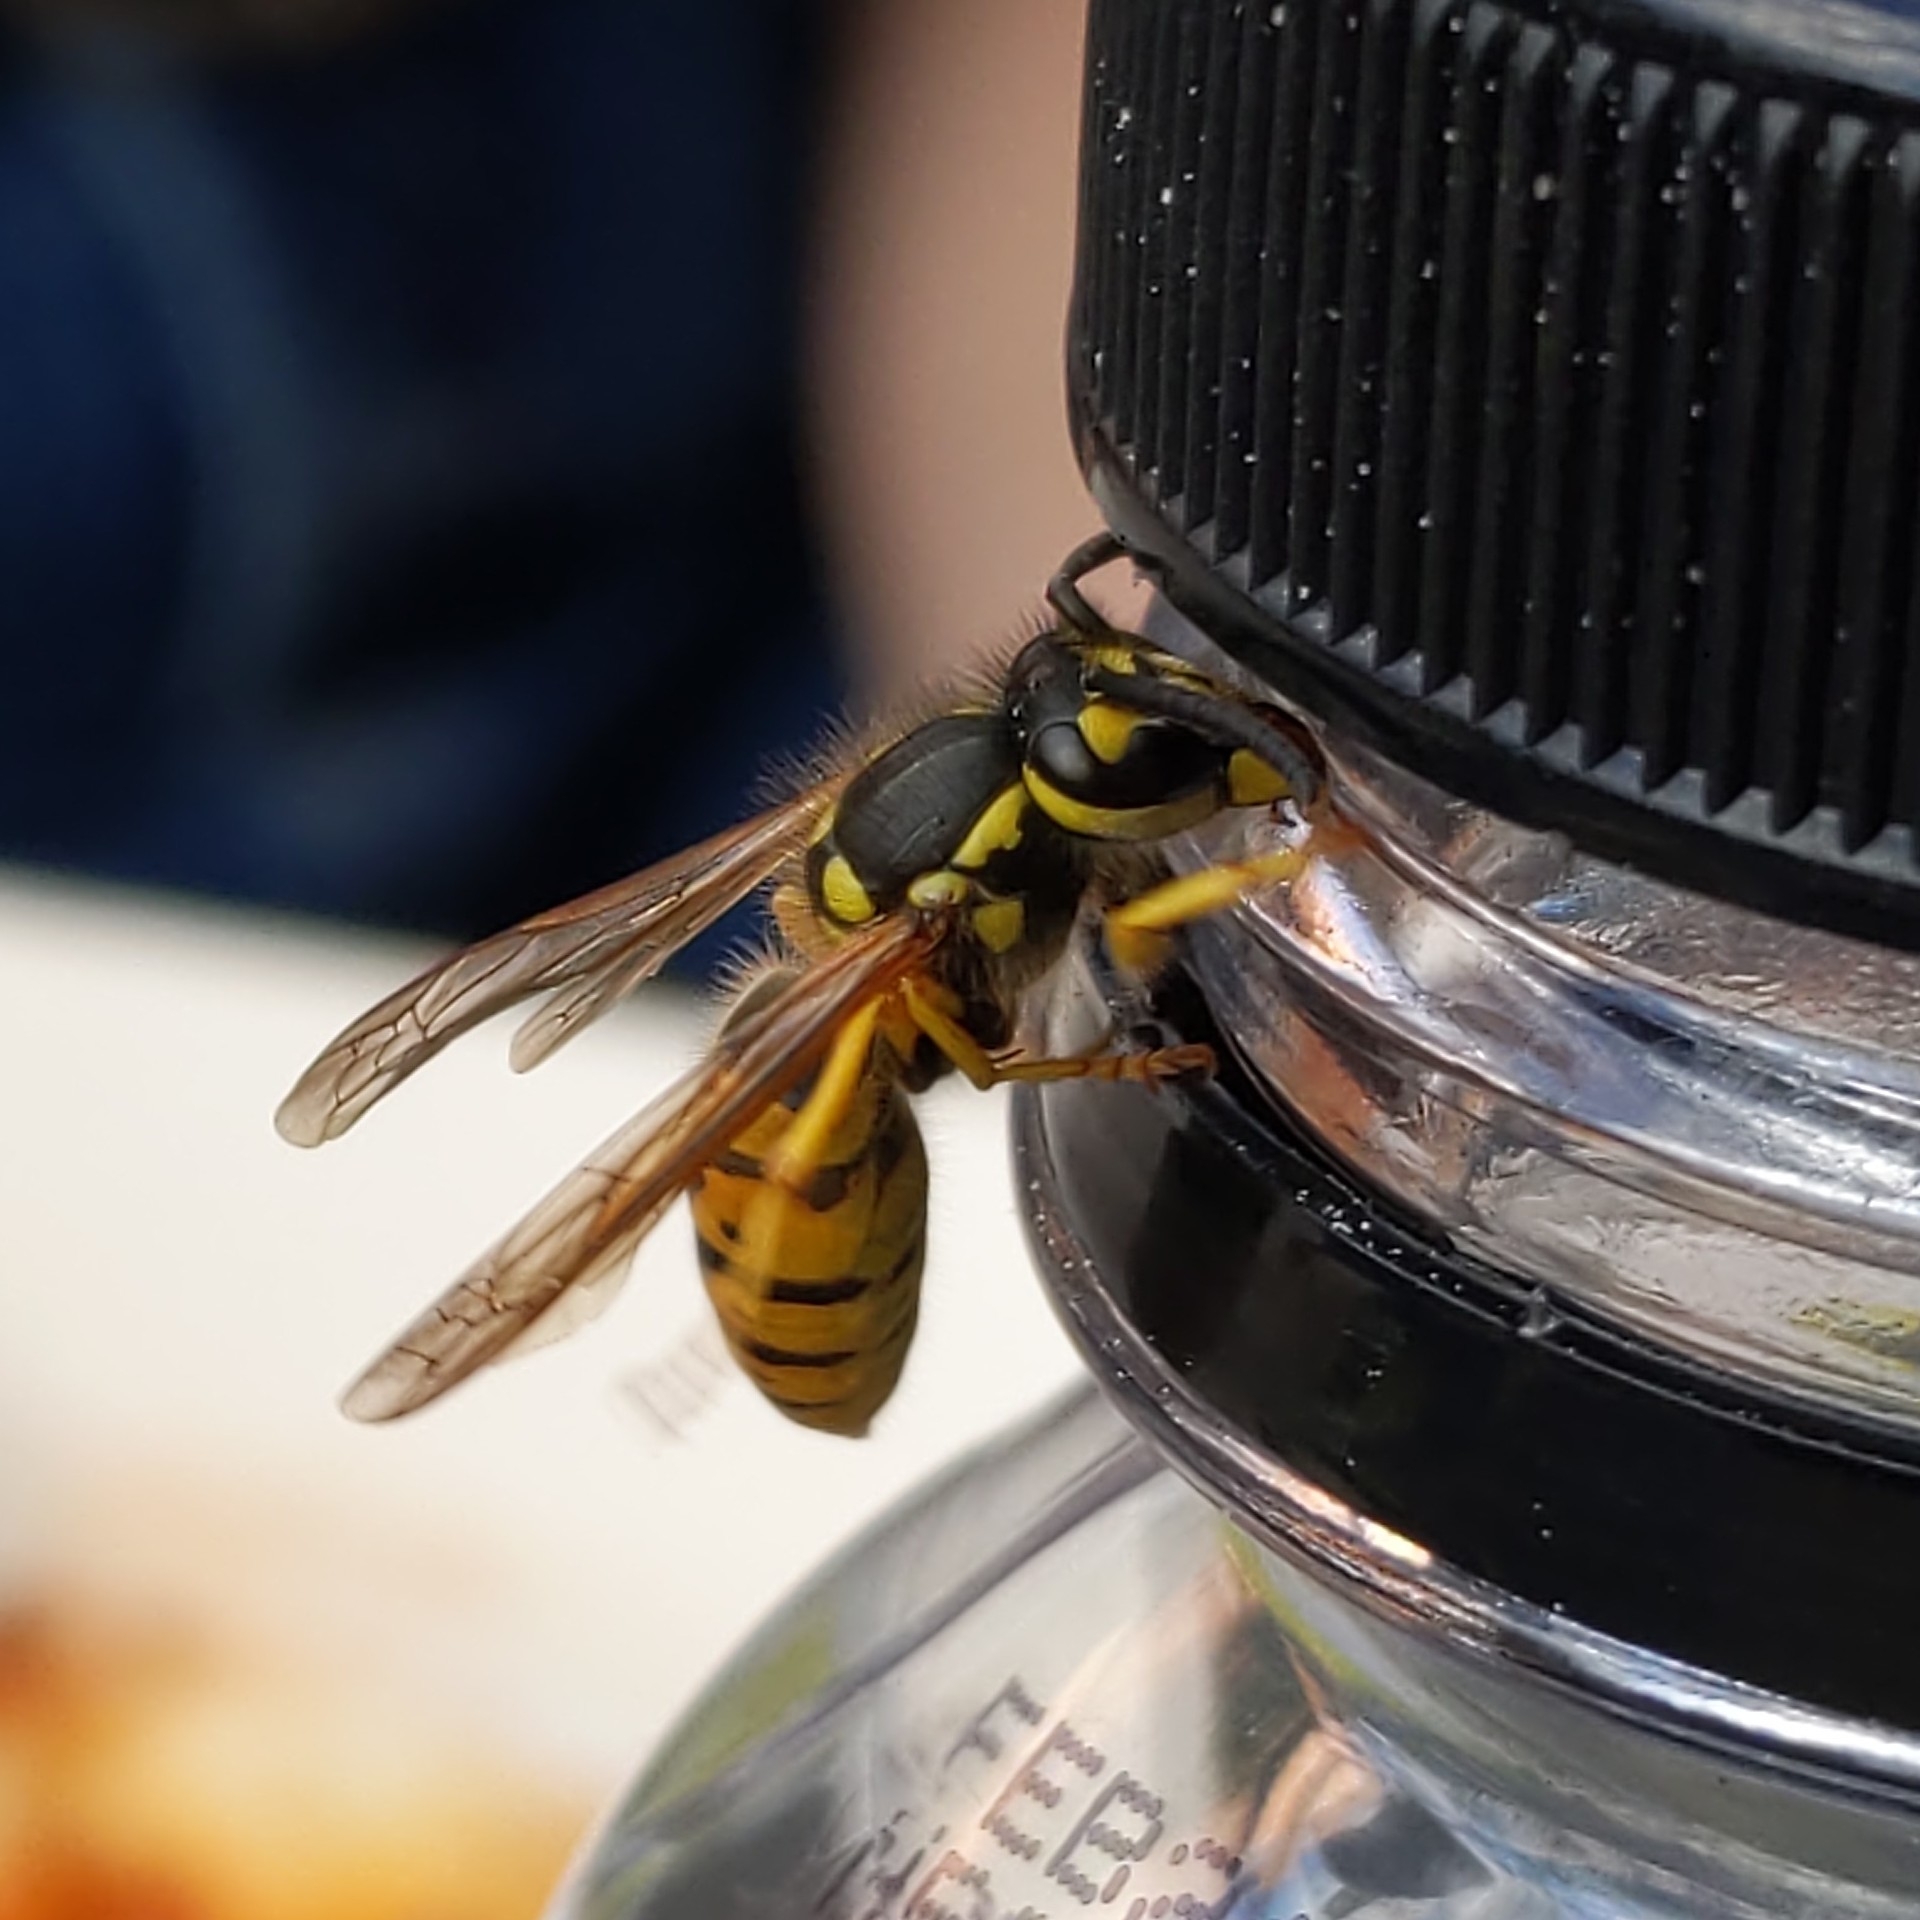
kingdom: Animalia
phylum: Arthropoda
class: Insecta
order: Hymenoptera
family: Vespidae
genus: Vespula
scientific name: Vespula germanica
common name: German wasp
